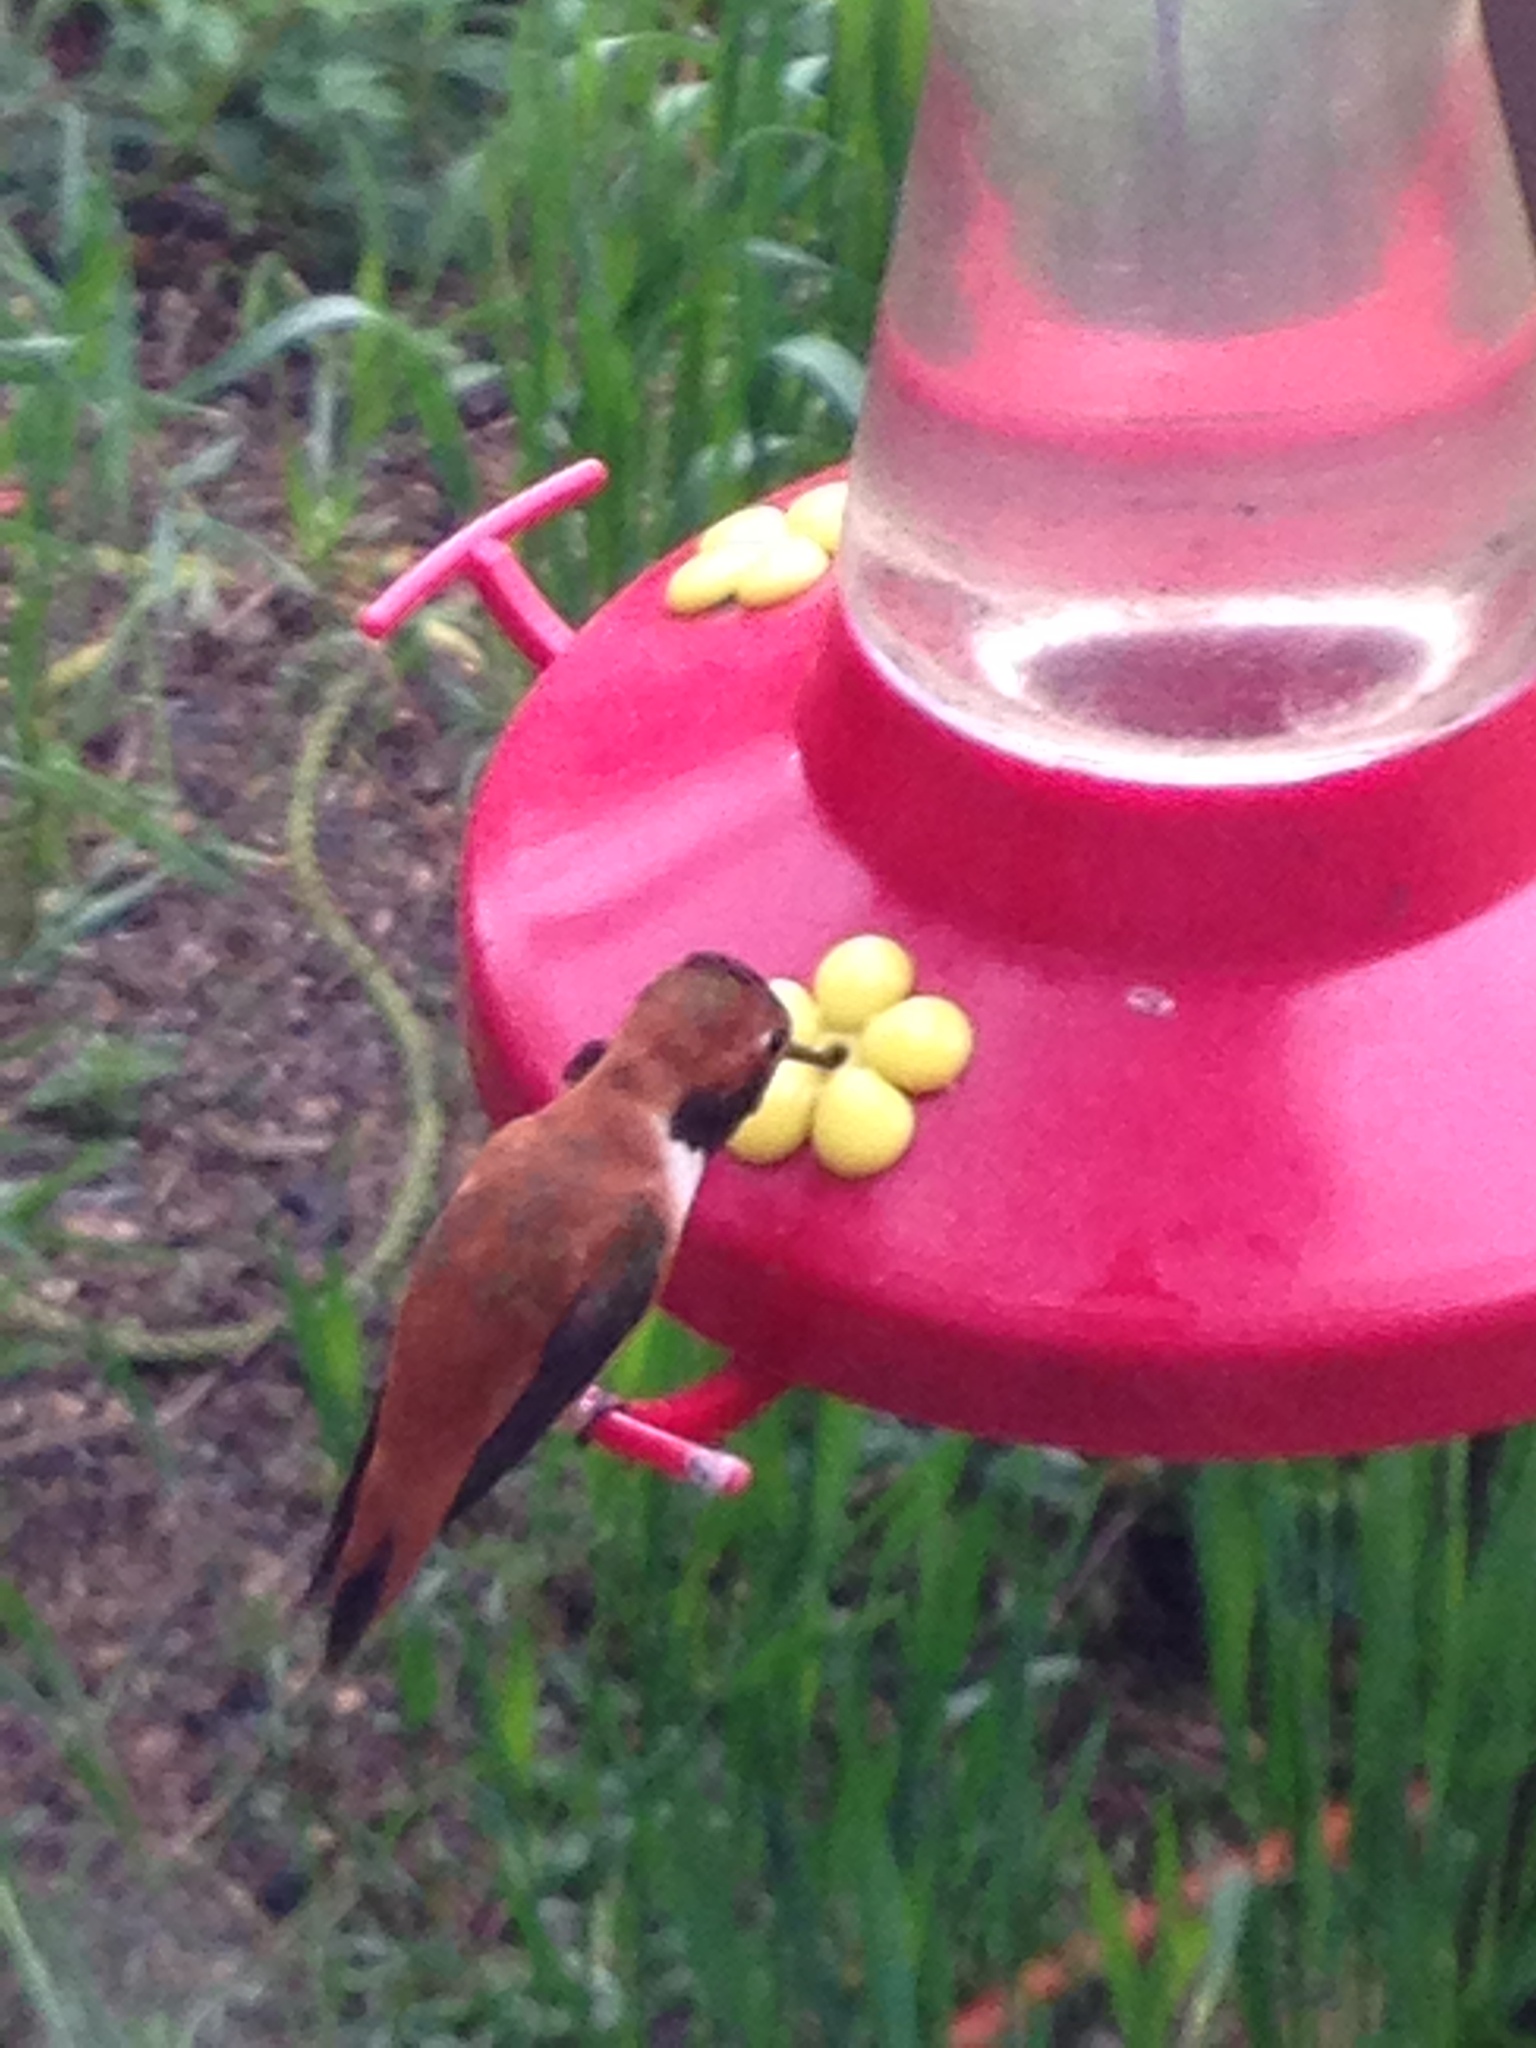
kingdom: Animalia
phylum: Chordata
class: Aves
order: Apodiformes
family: Trochilidae
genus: Selasphorus
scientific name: Selasphorus rufus
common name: Rufous hummingbird
